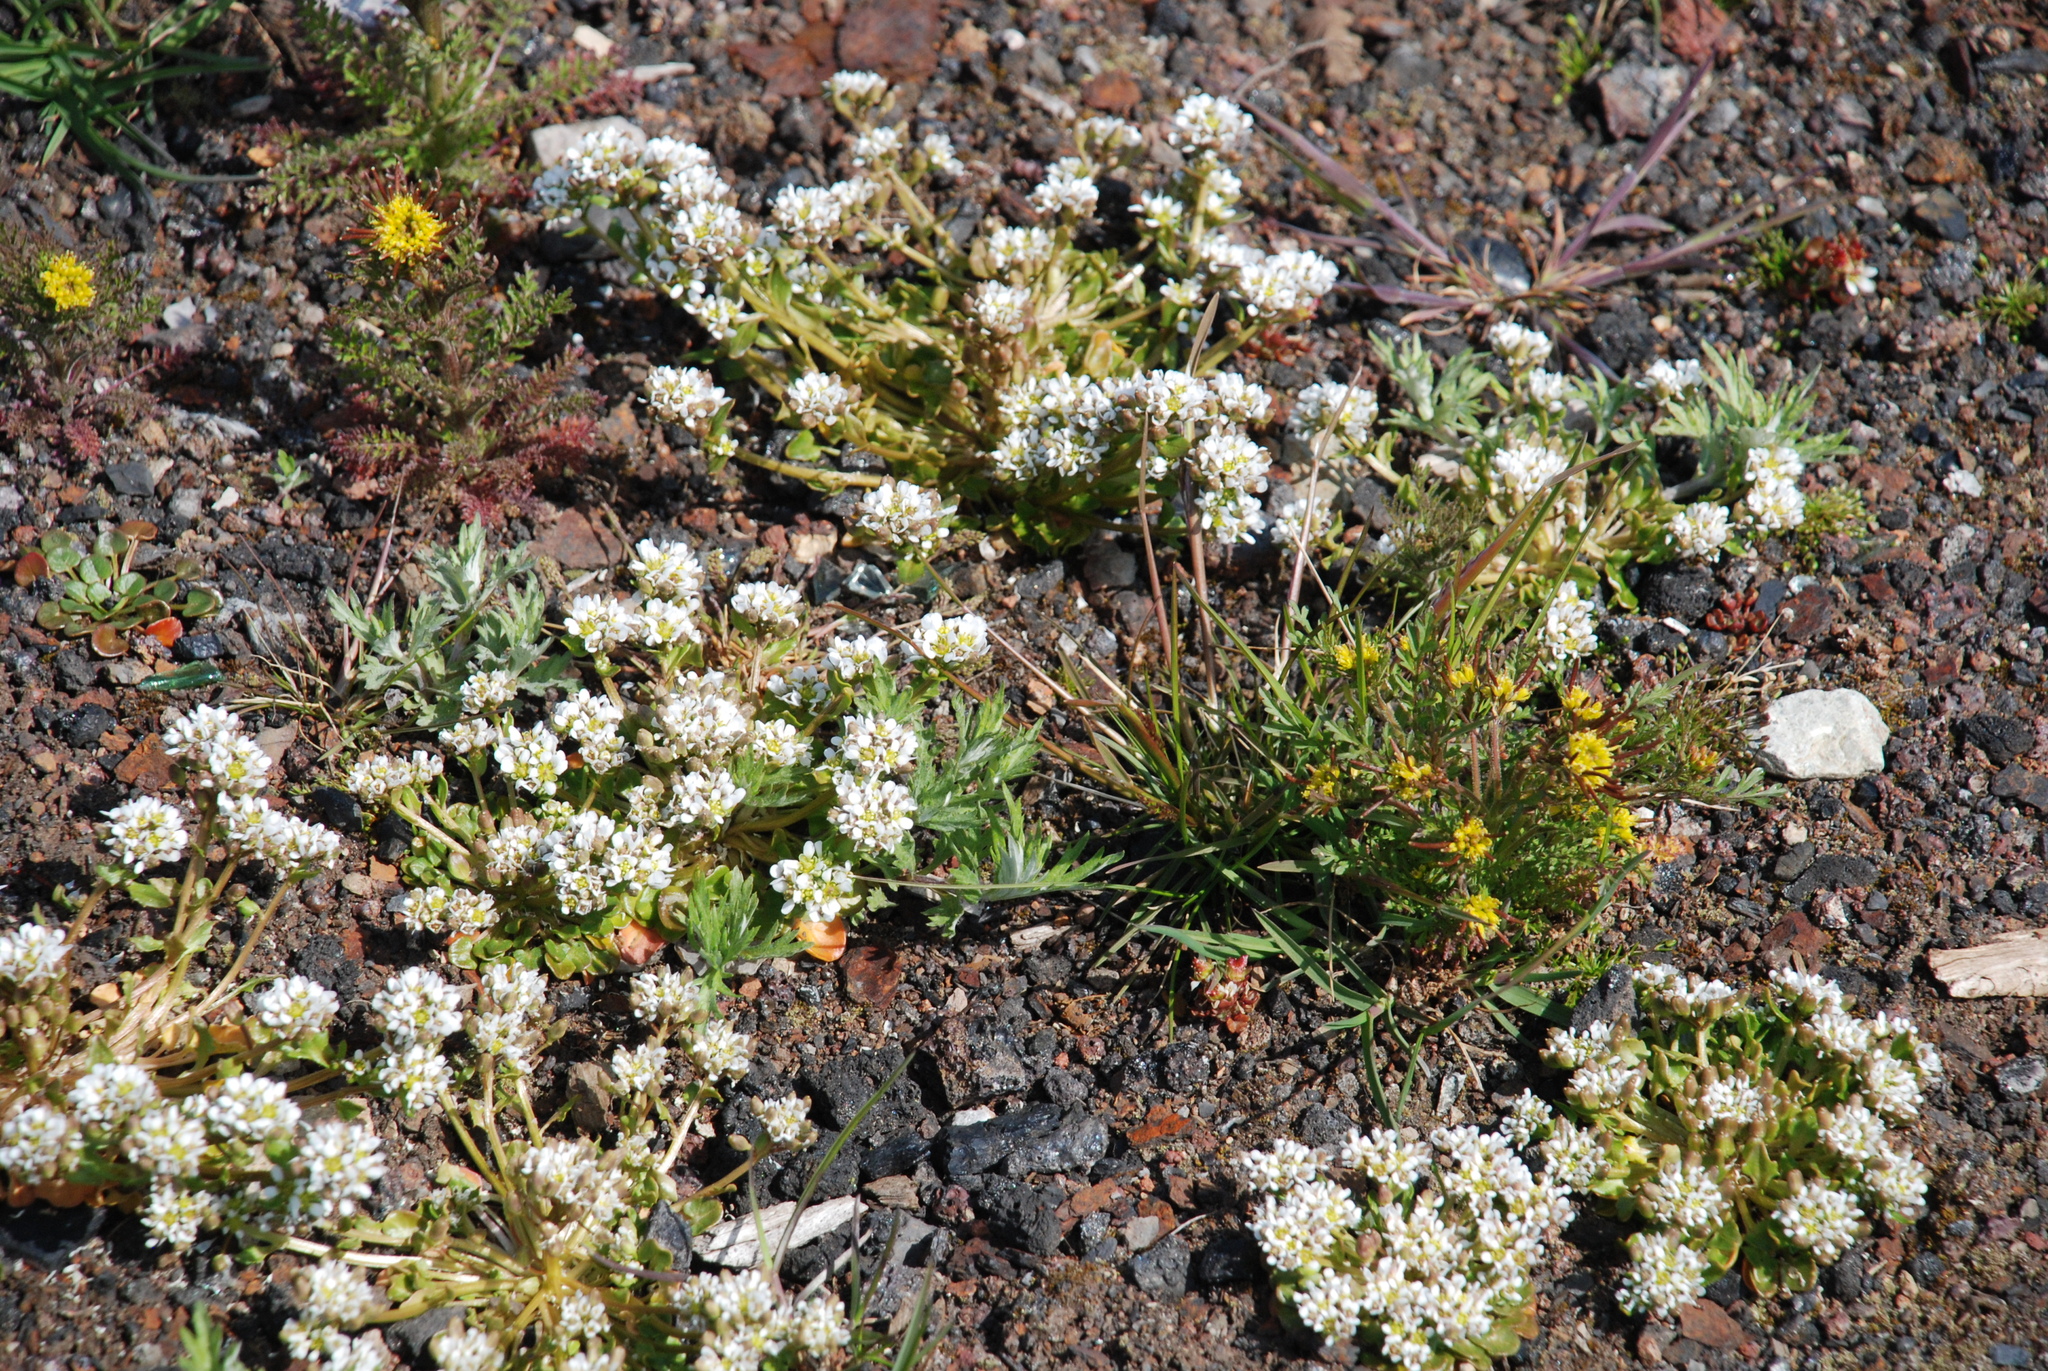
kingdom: Plantae
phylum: Tracheophyta
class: Magnoliopsida
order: Brassicales
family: Brassicaceae
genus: Cochlearia
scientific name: Cochlearia groenlandica
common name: Danish scurvygrass
